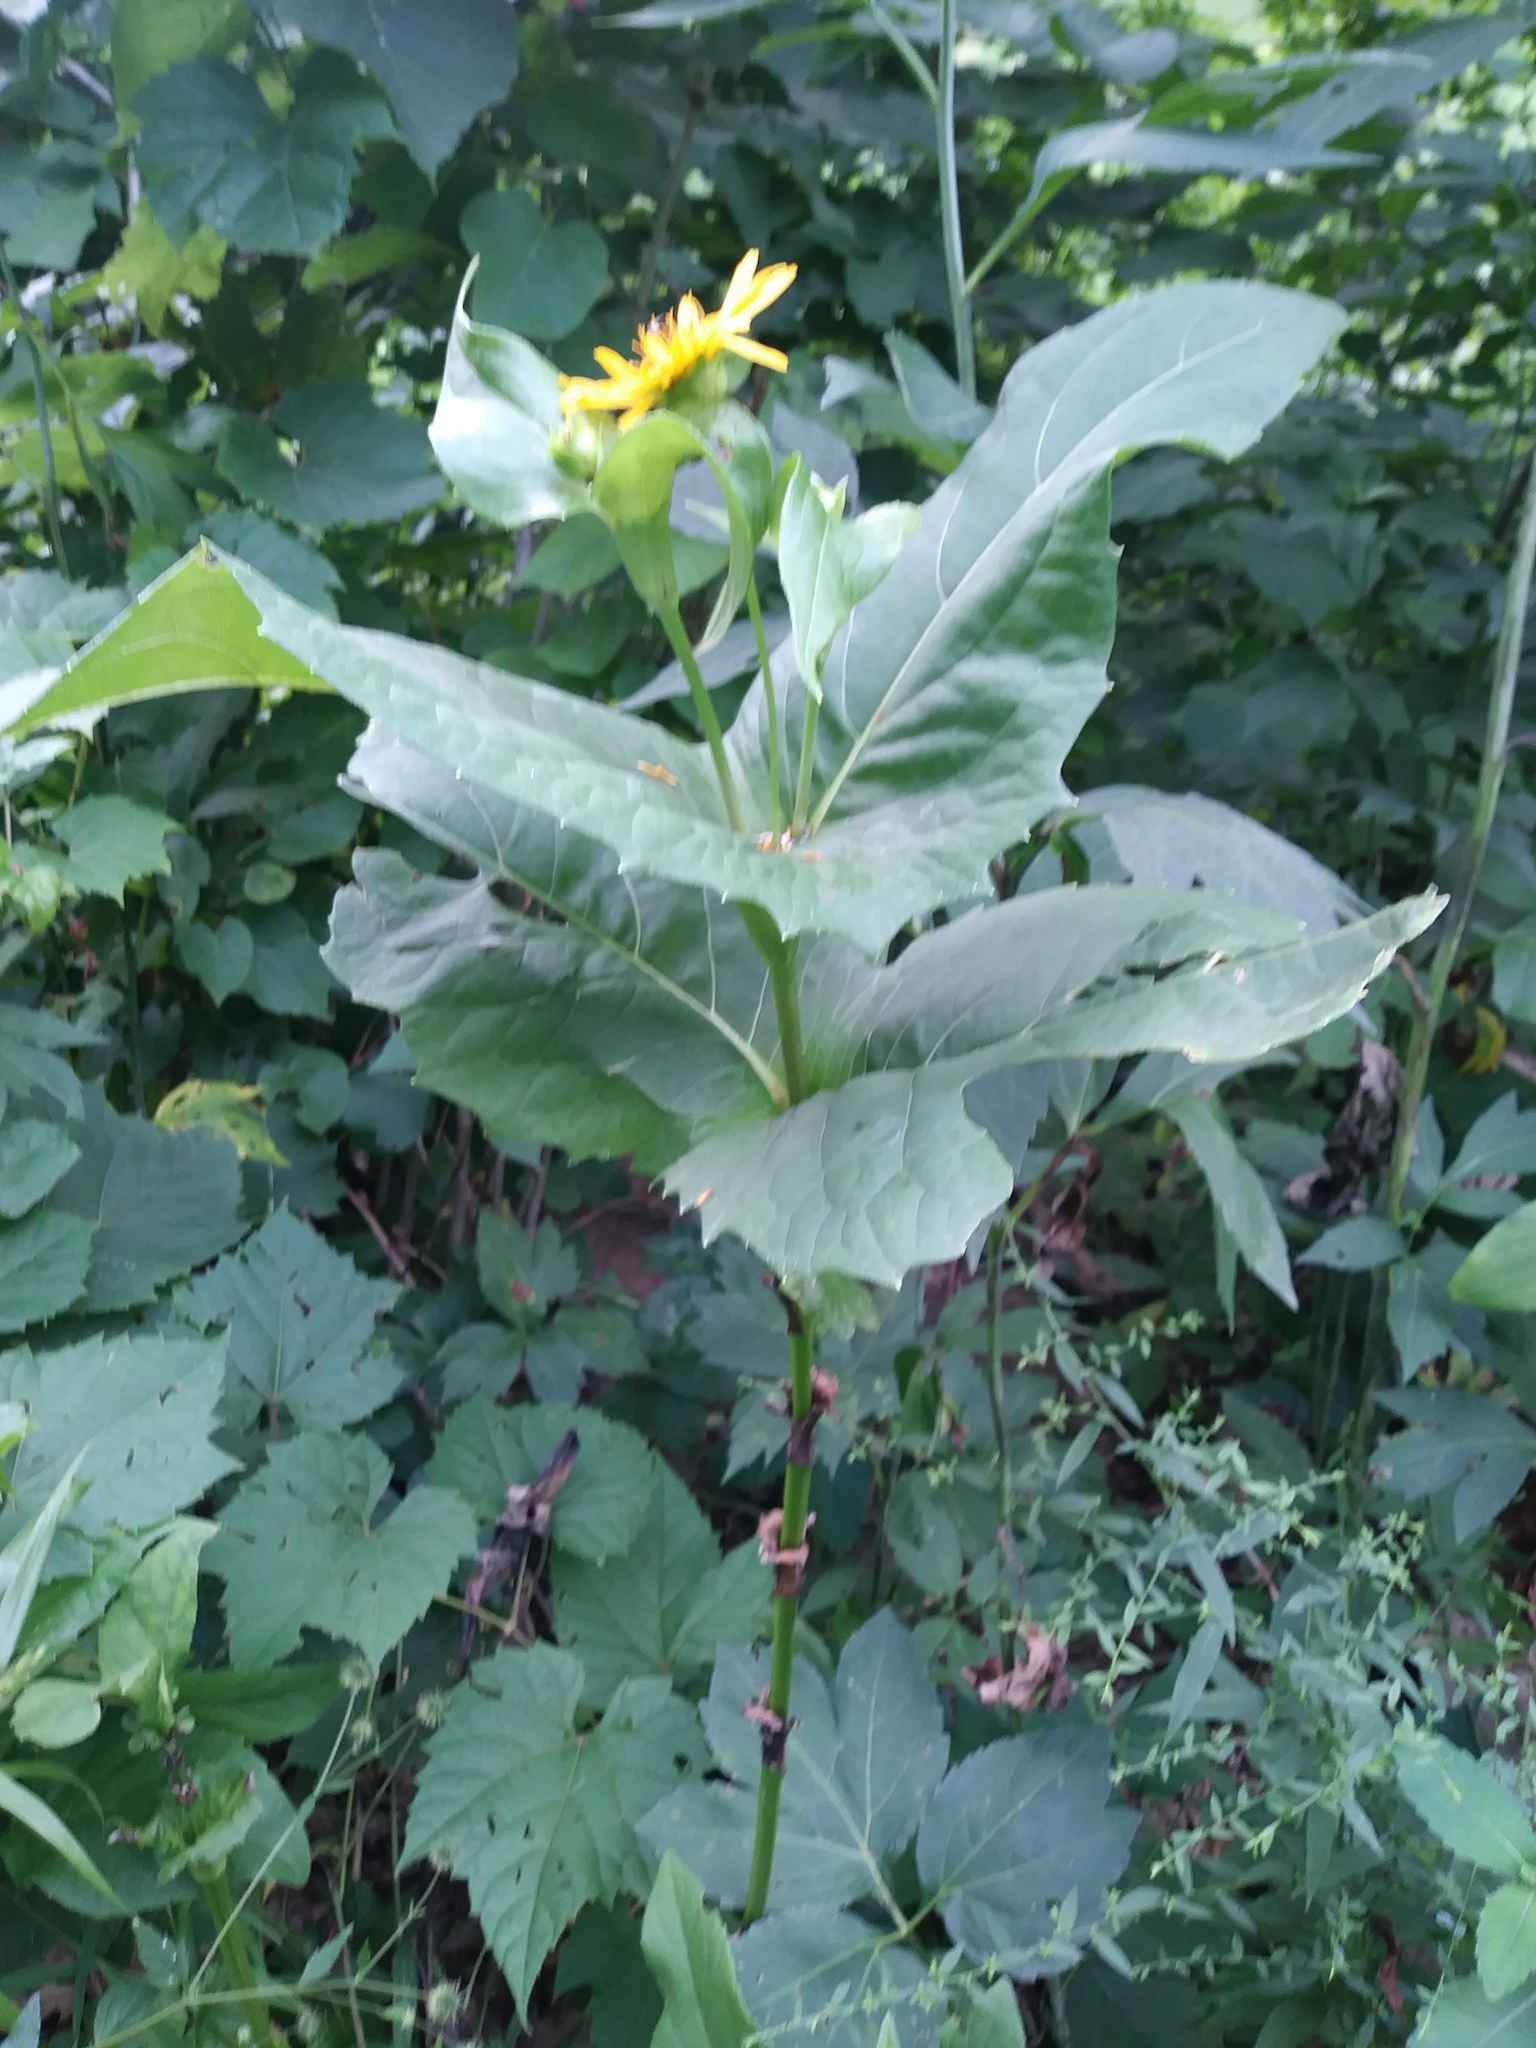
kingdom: Plantae
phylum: Tracheophyta
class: Magnoliopsida
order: Asterales
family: Asteraceae
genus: Silphium
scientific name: Silphium perfoliatum
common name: Cup-plant
